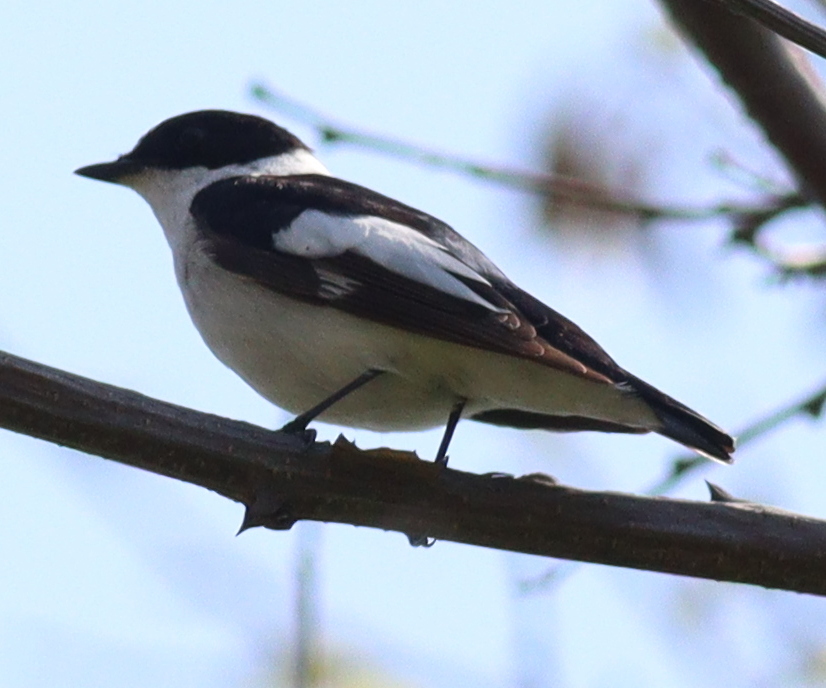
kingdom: Animalia
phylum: Chordata
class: Aves
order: Passeriformes
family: Muscicapidae
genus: Ficedula
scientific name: Ficedula albicollis
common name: Collared flycatcher
